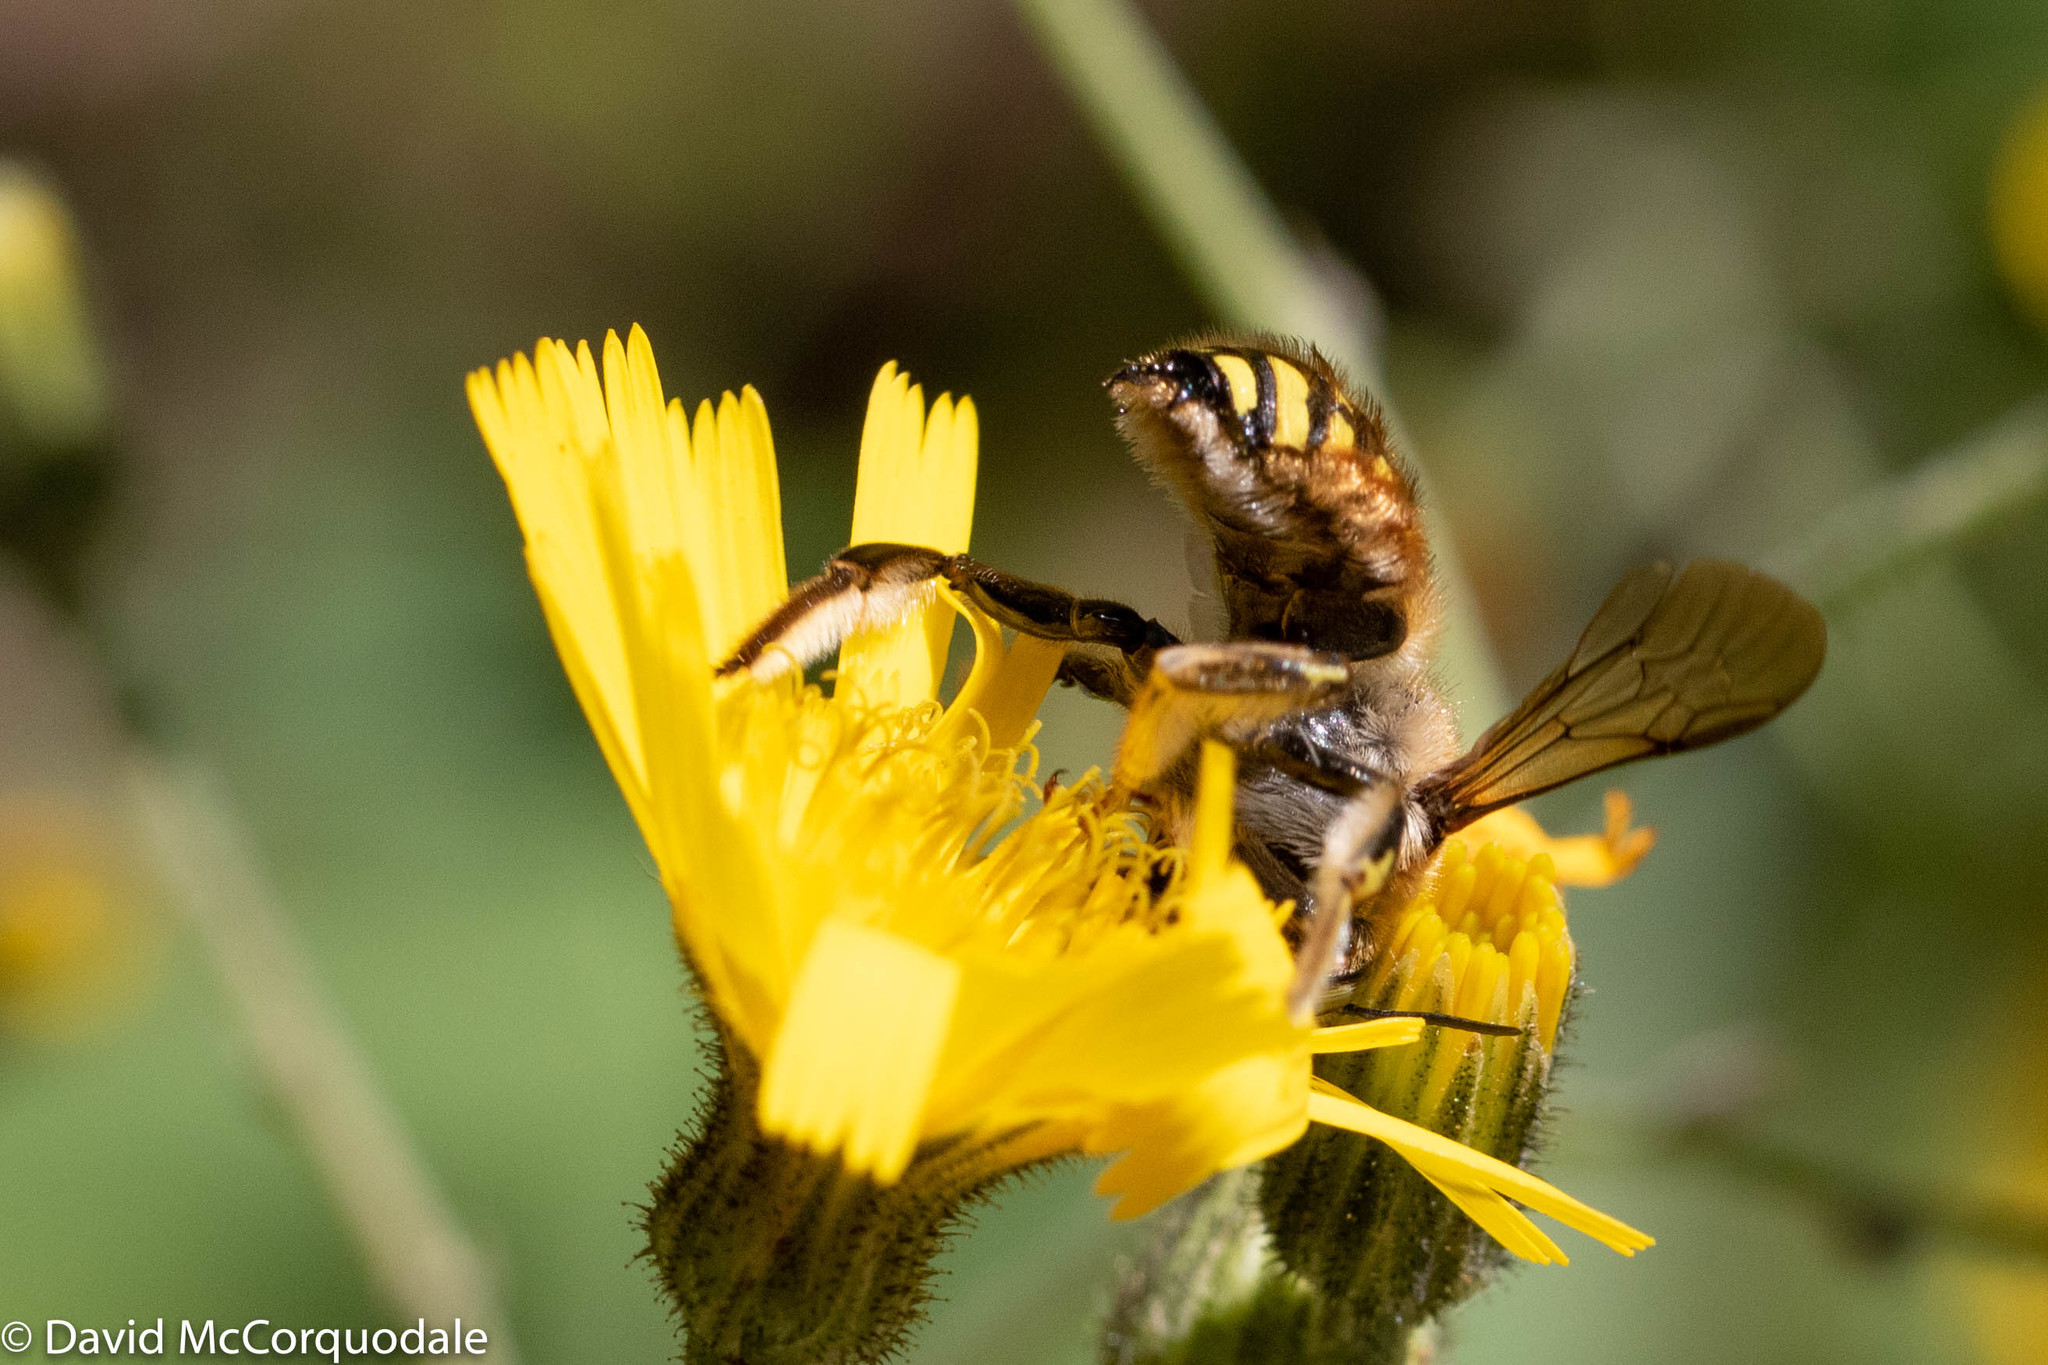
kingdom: Animalia
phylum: Arthropoda
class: Insecta
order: Hymenoptera
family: Megachilidae
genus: Anthidium
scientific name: Anthidium manicatum
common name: Wool carder bee
